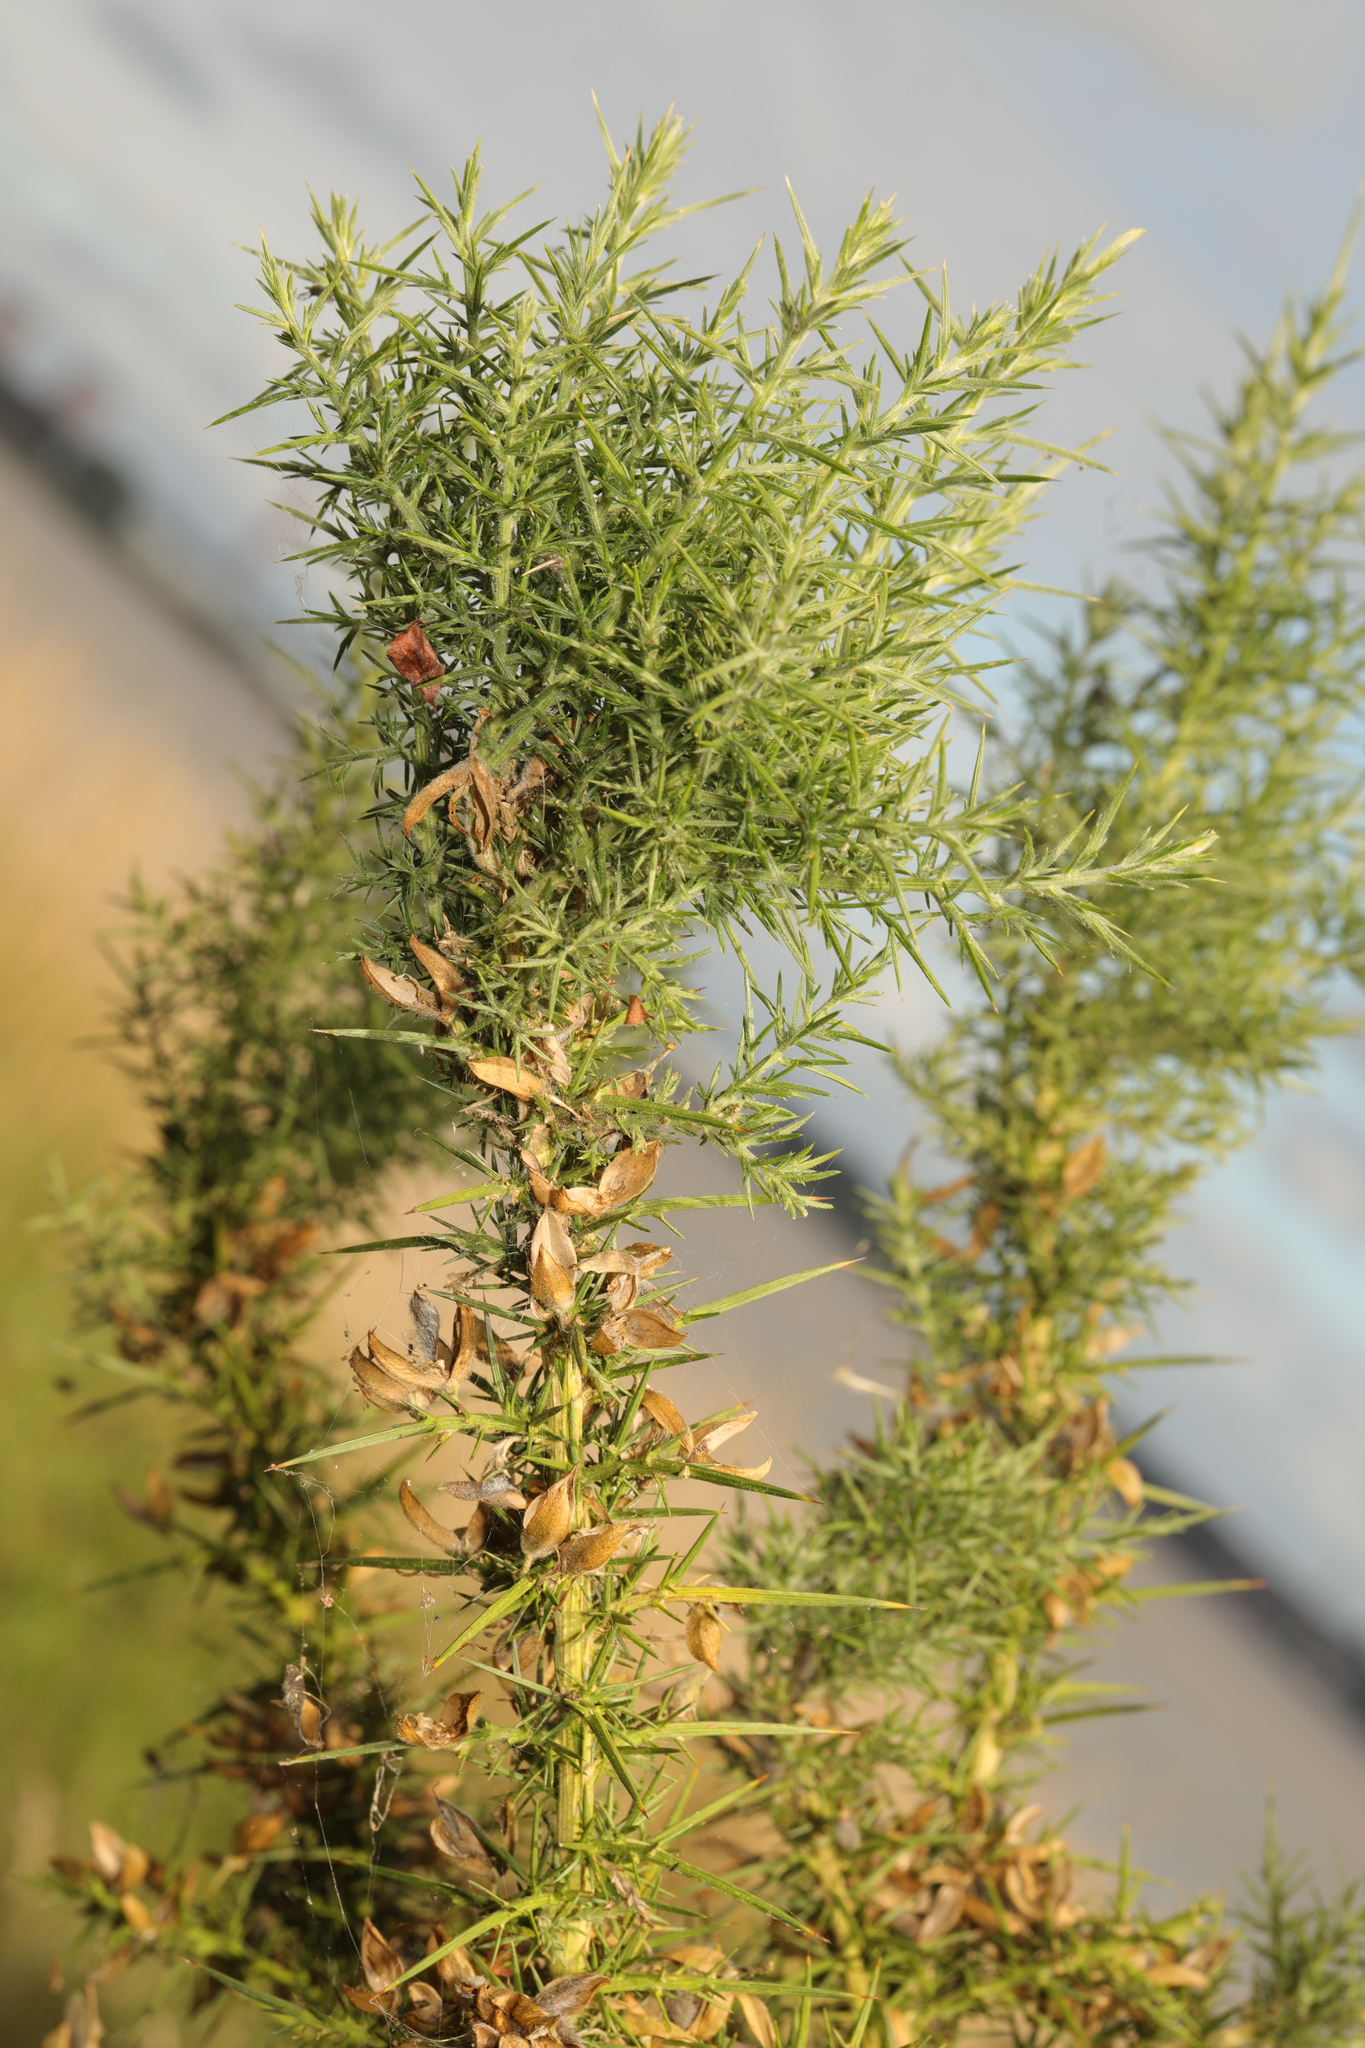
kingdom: Plantae
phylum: Tracheophyta
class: Magnoliopsida
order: Fabales
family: Fabaceae
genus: Ulex
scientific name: Ulex europaeus
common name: Common gorse
